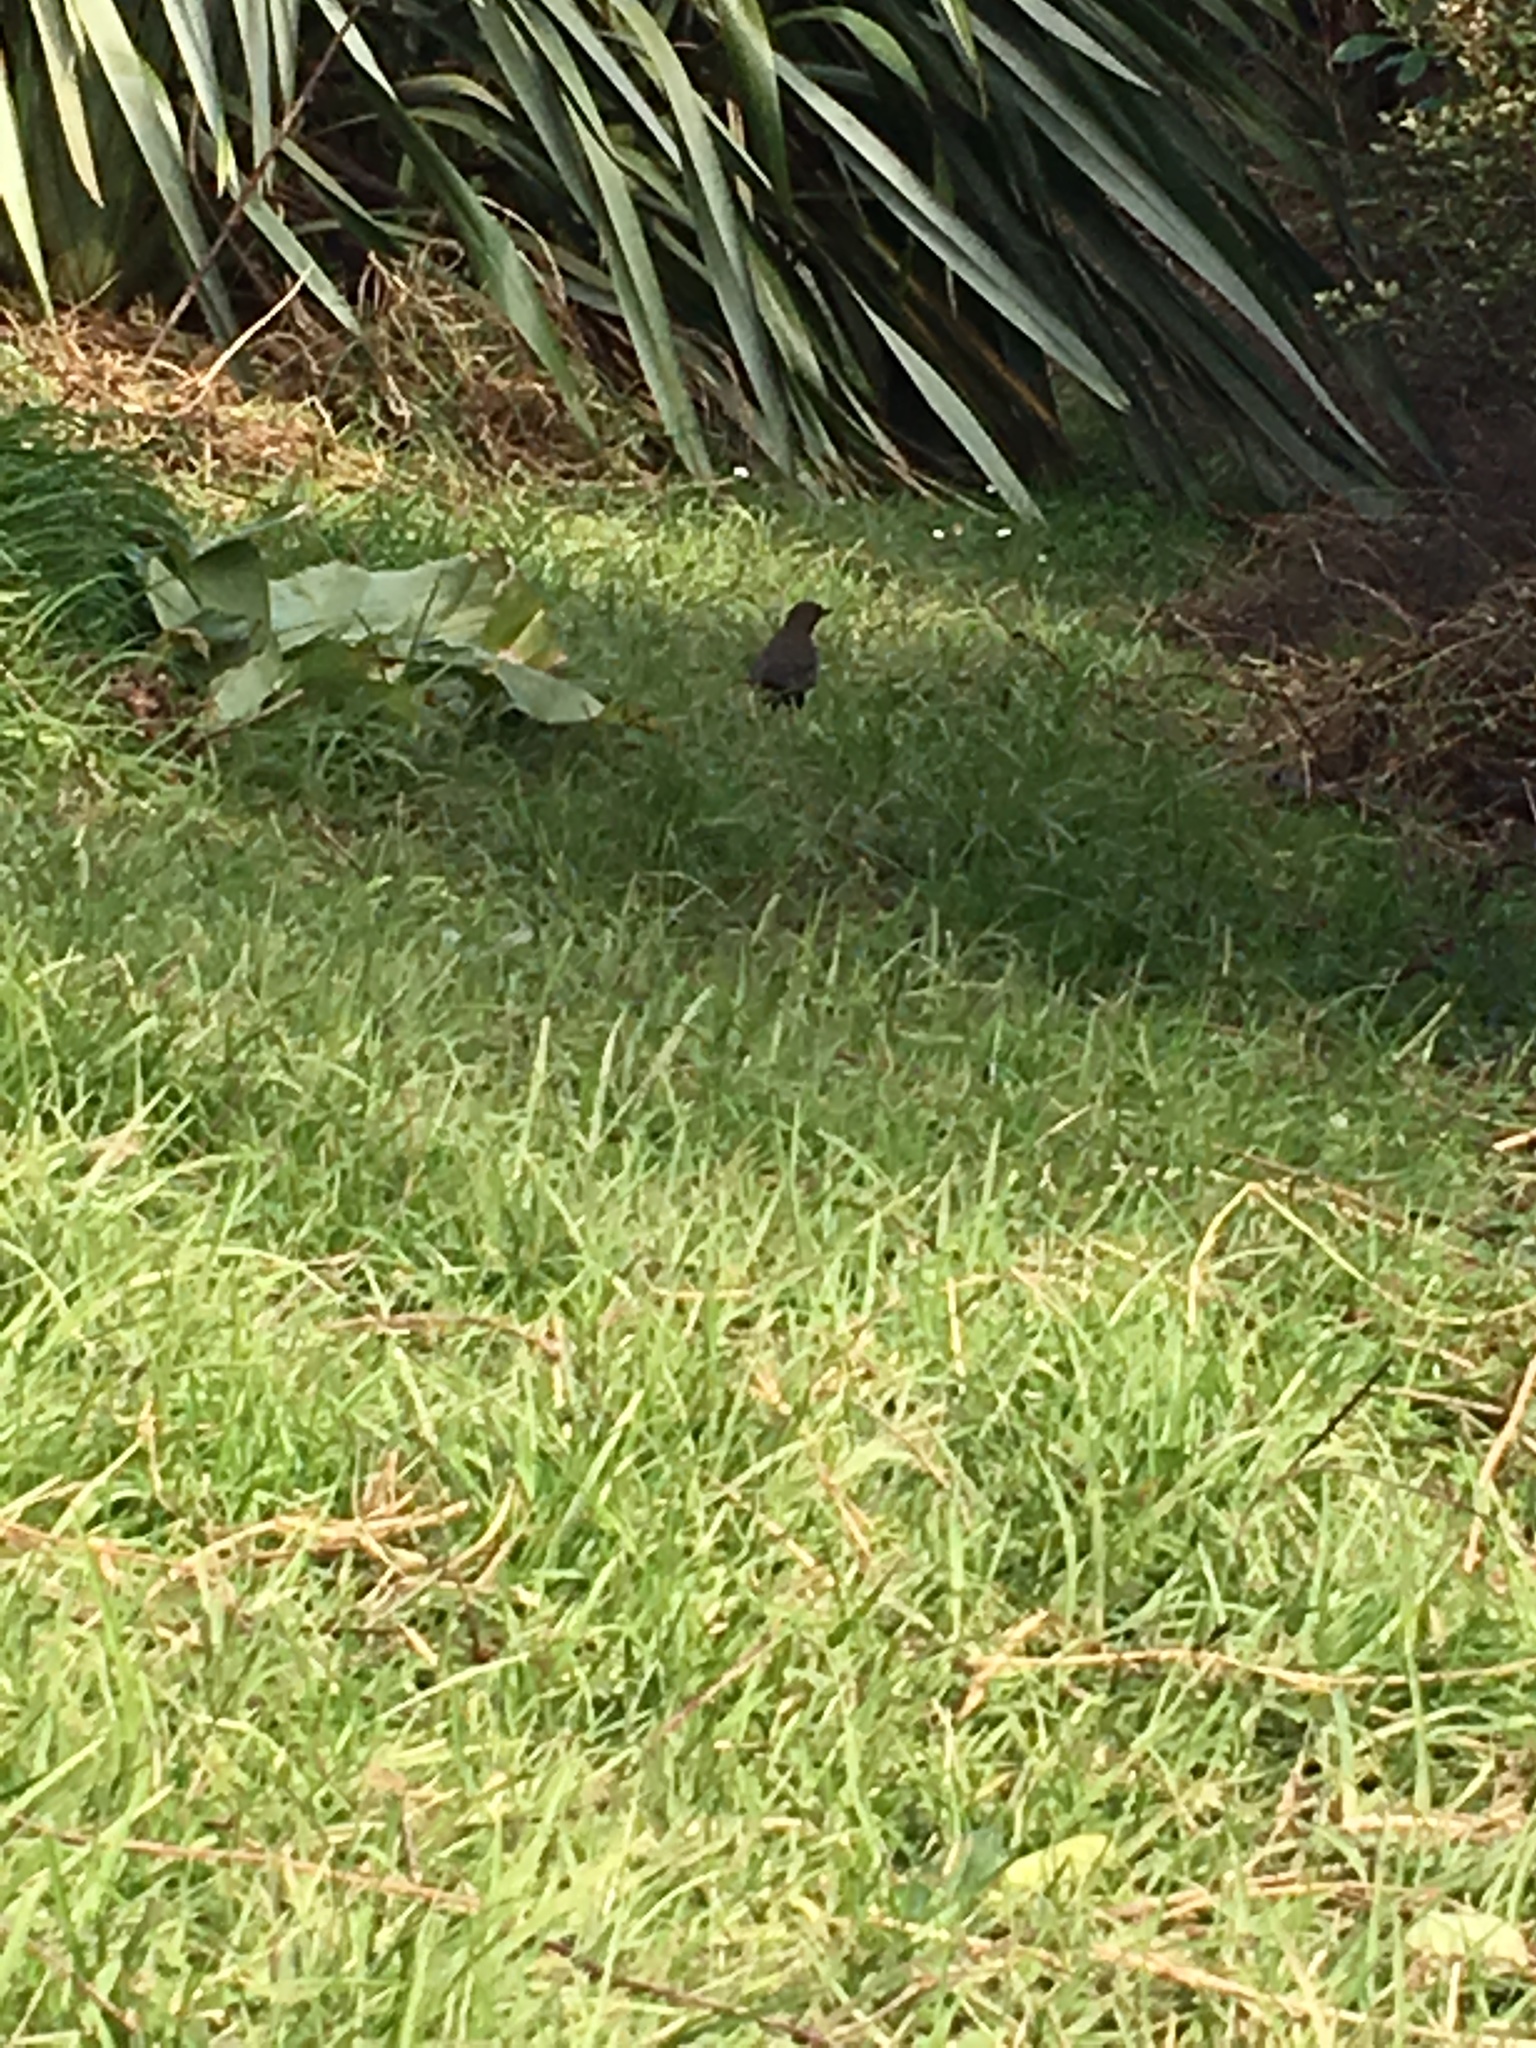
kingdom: Animalia
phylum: Chordata
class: Aves
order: Passeriformes
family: Turdidae
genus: Turdus
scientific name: Turdus merula
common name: Common blackbird
